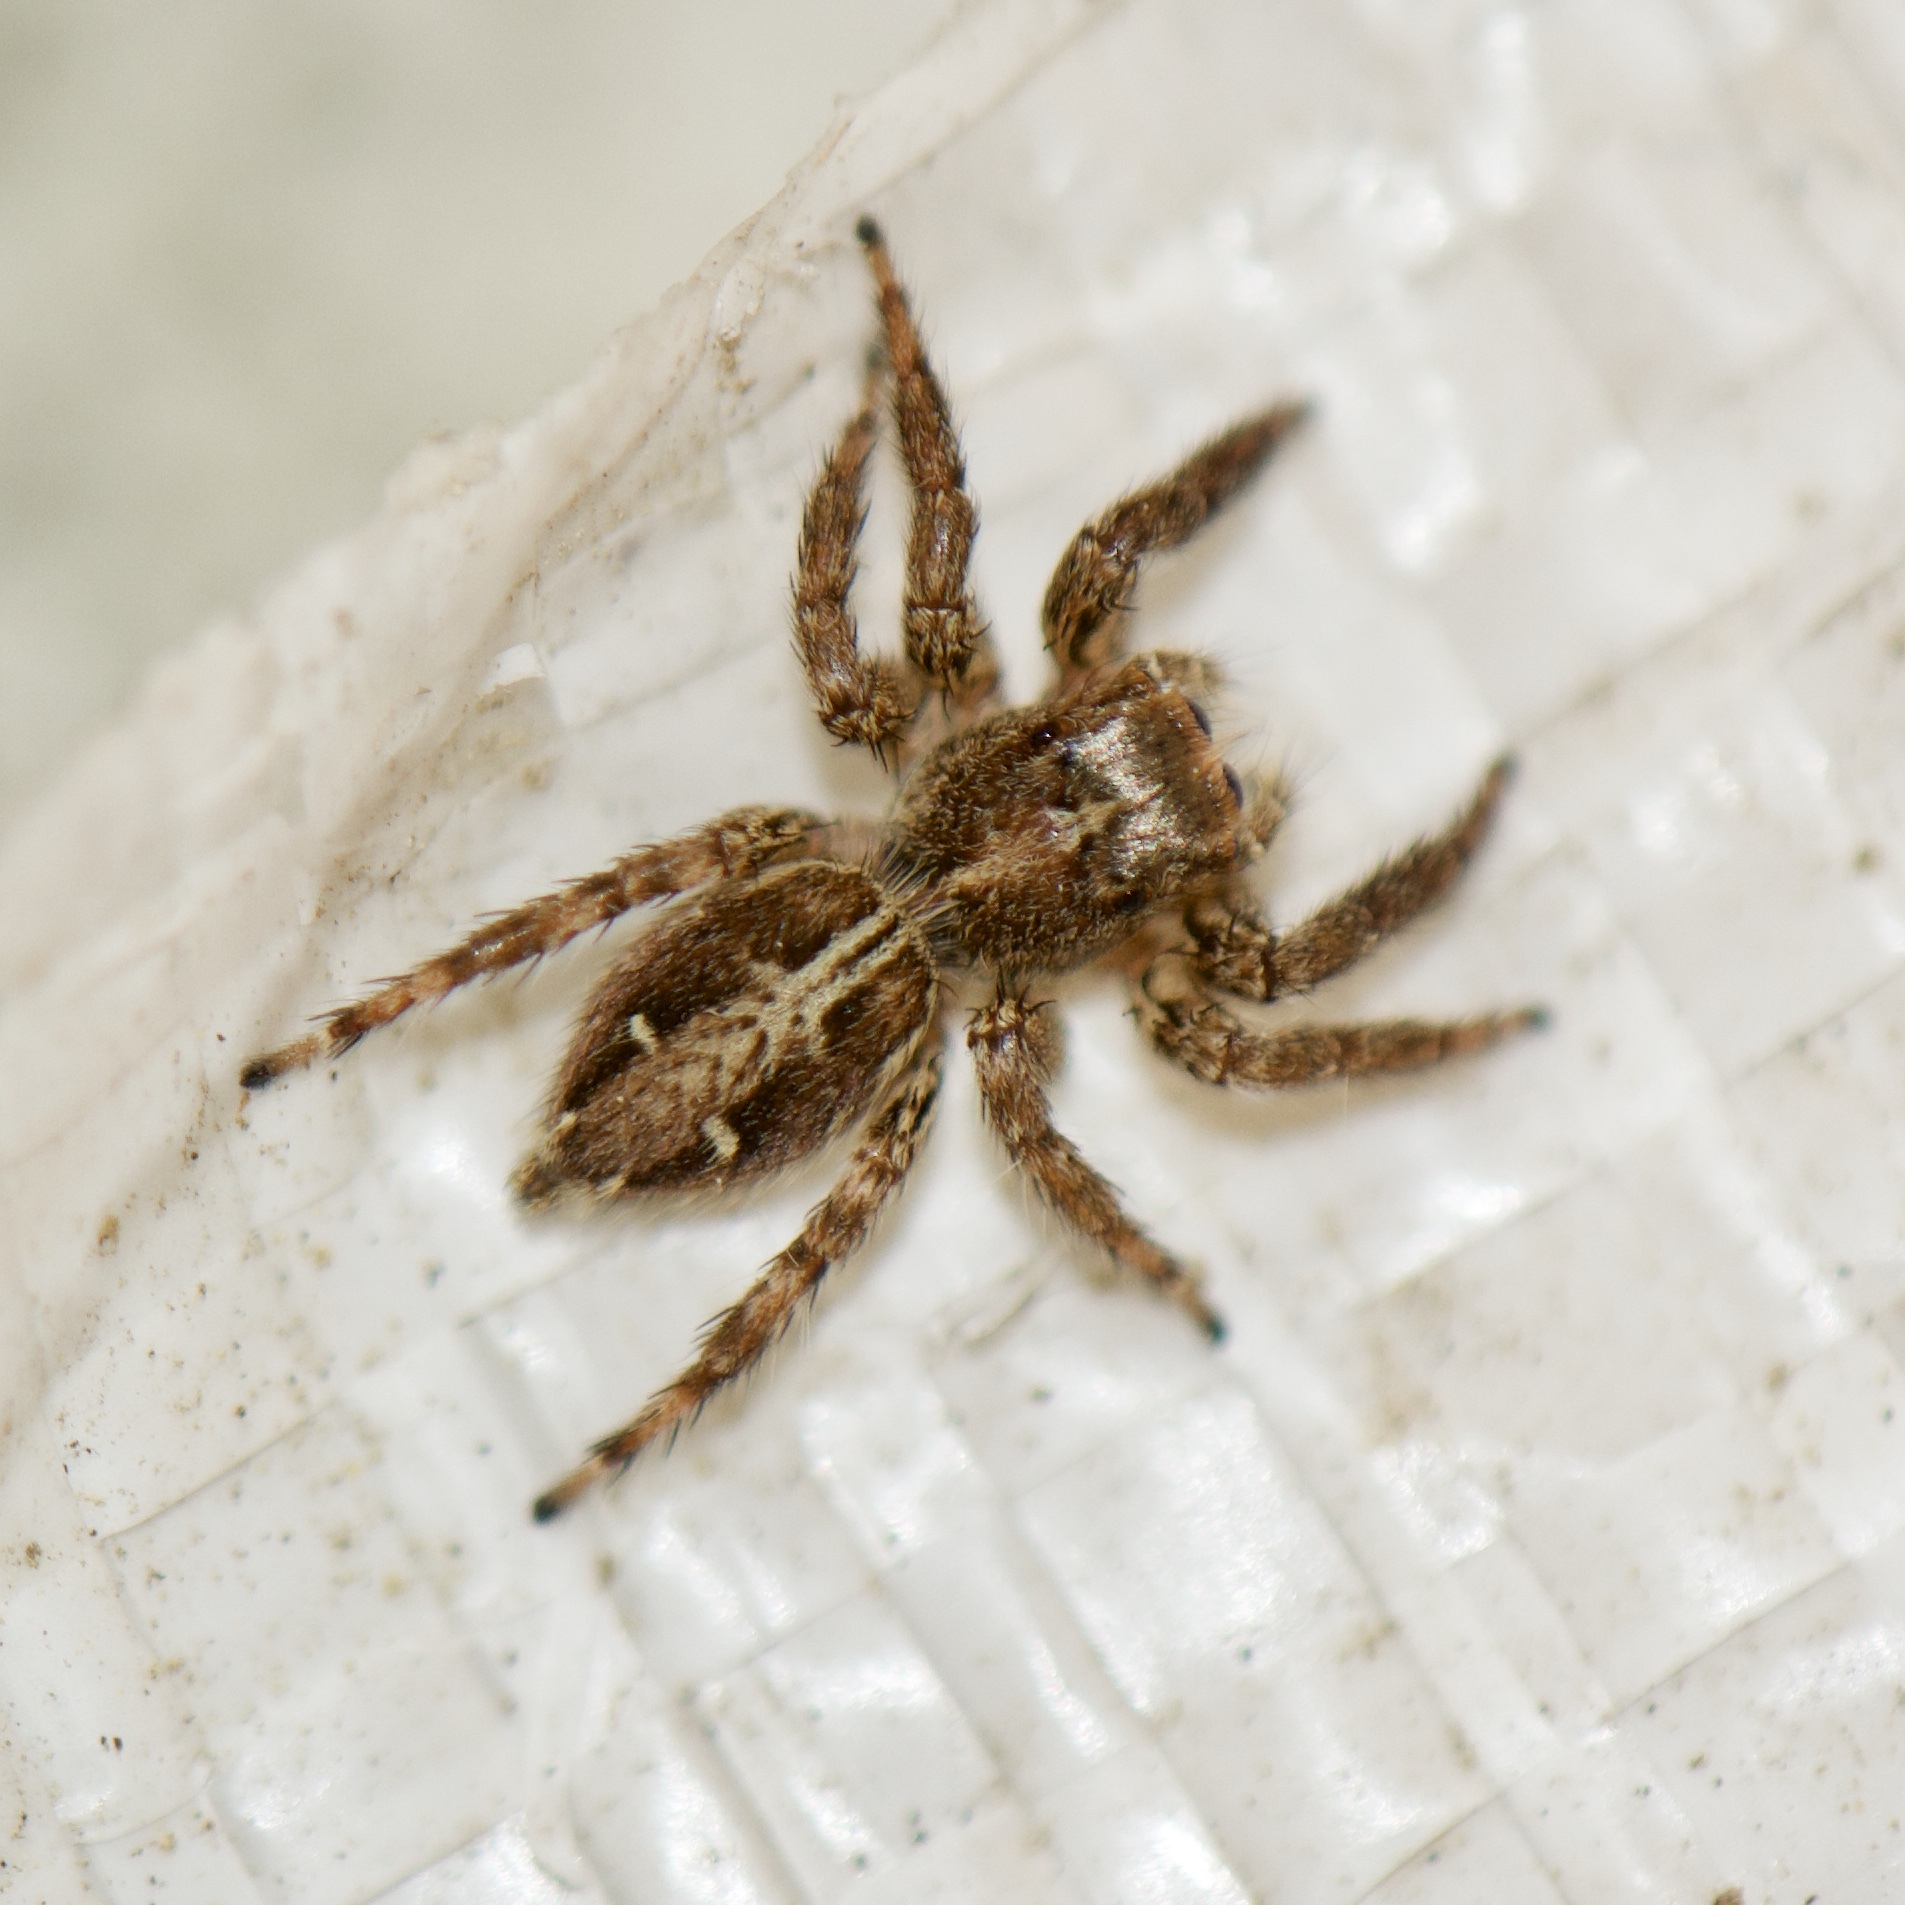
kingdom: Animalia
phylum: Arthropoda
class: Arachnida
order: Araneae
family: Salticidae
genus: Plexippus
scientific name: Plexippus paykulli
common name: Pantropical jumper
